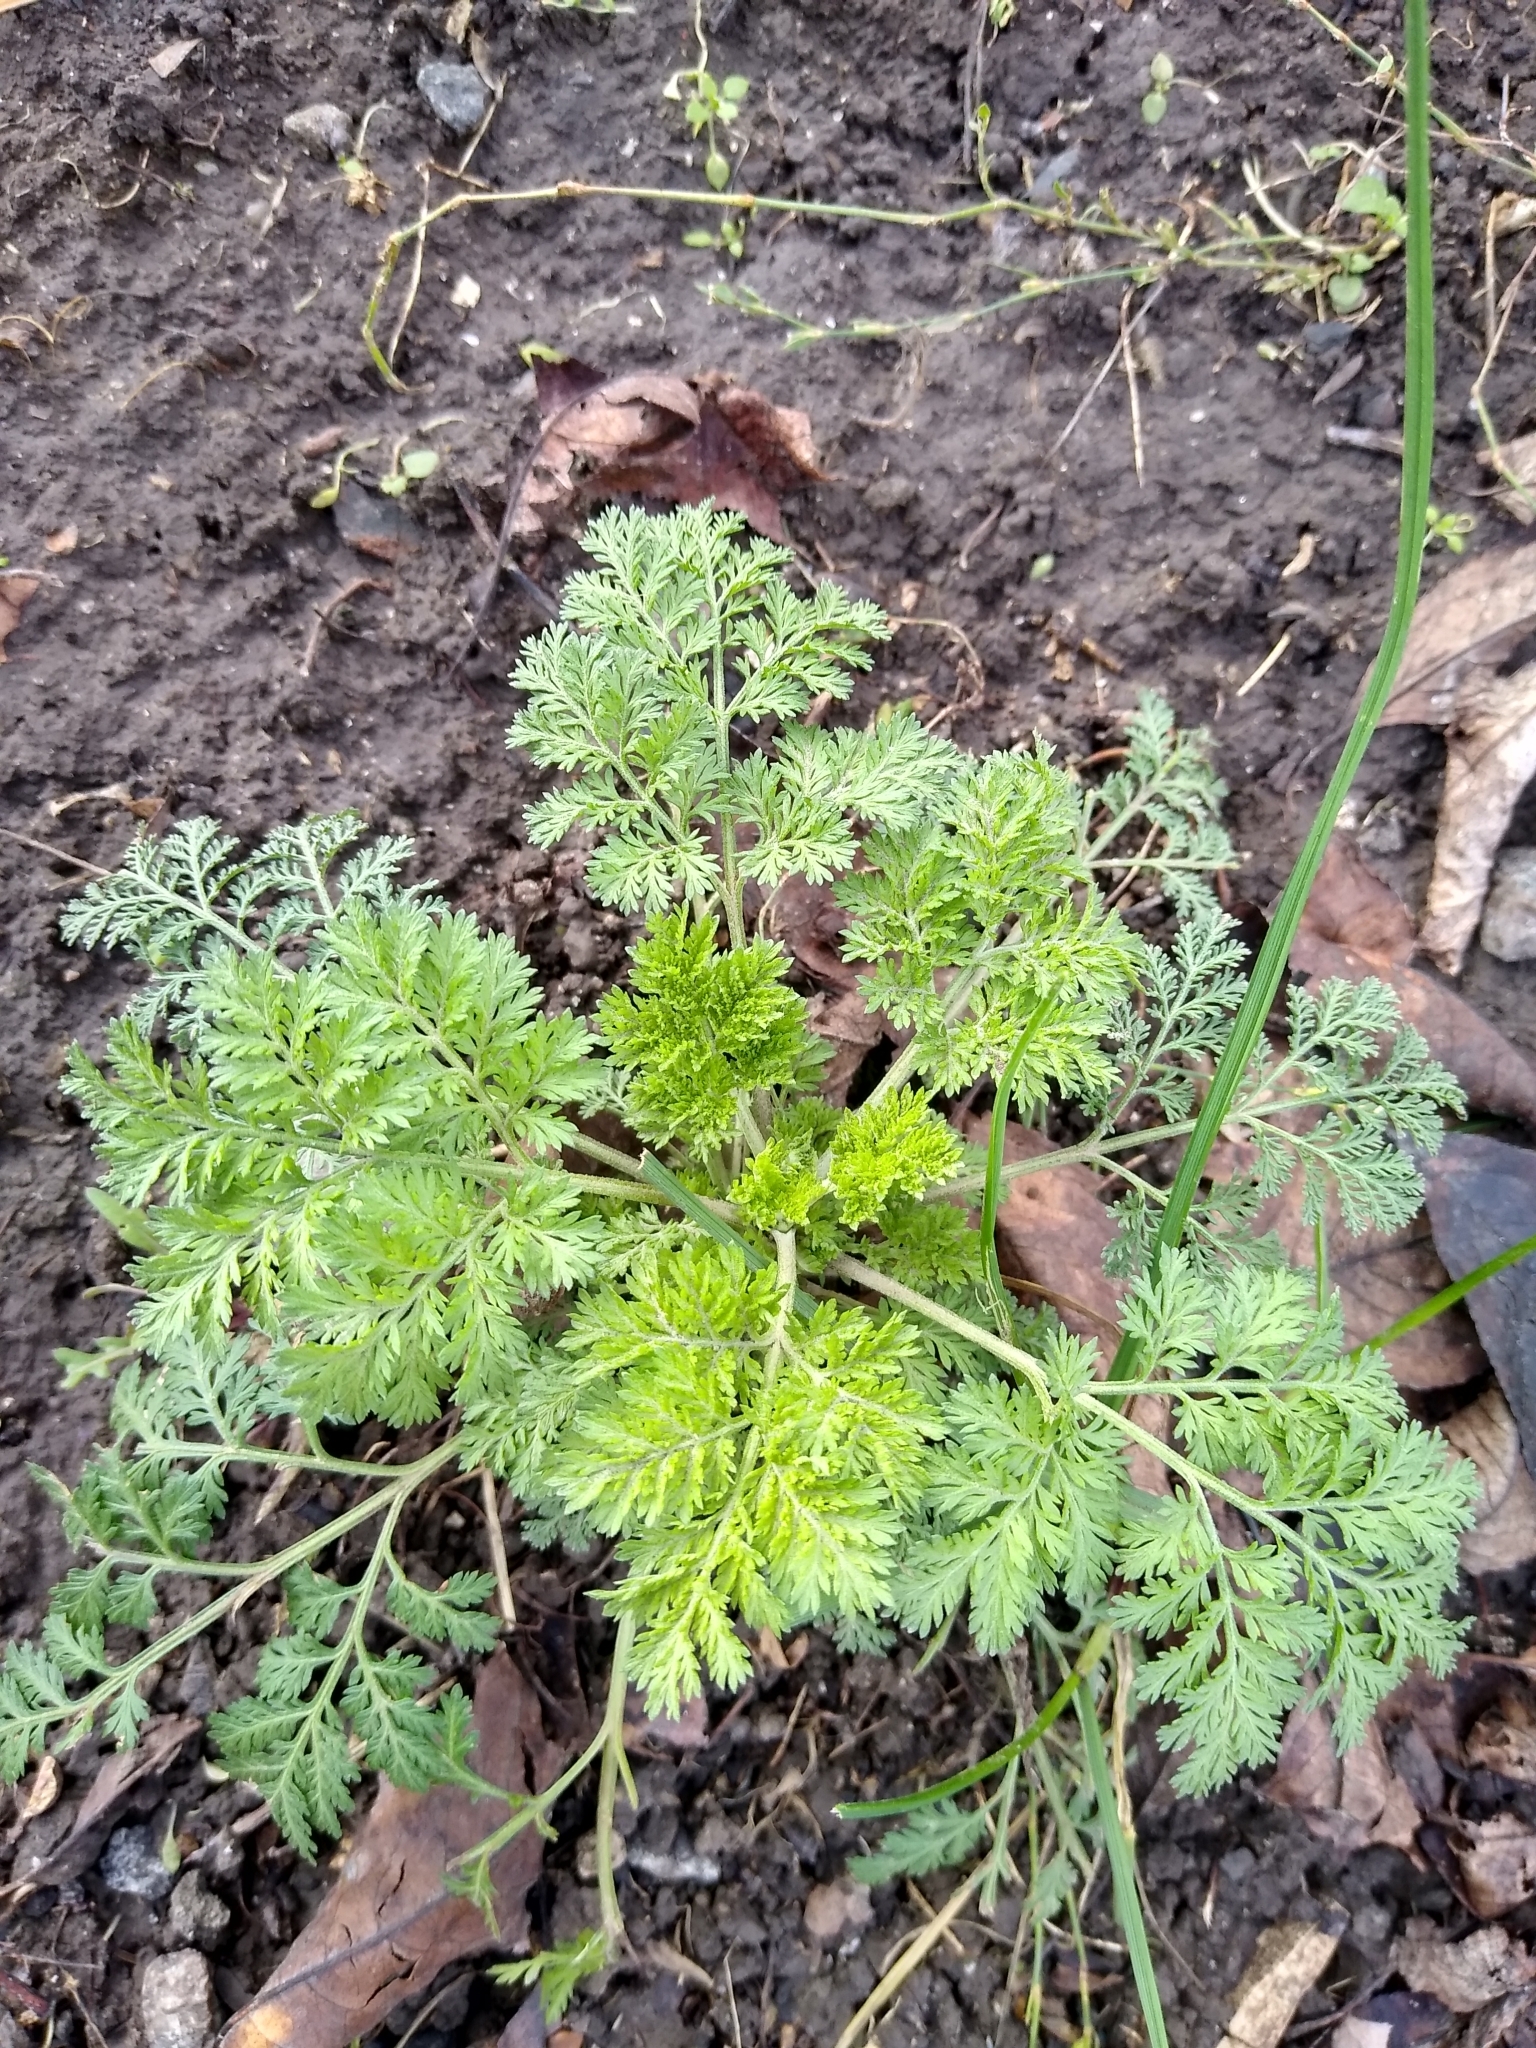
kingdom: Plantae
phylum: Tracheophyta
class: Magnoliopsida
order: Asterales
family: Asteraceae
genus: Artemisia
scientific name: Artemisia annua
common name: Sweet sagewort
